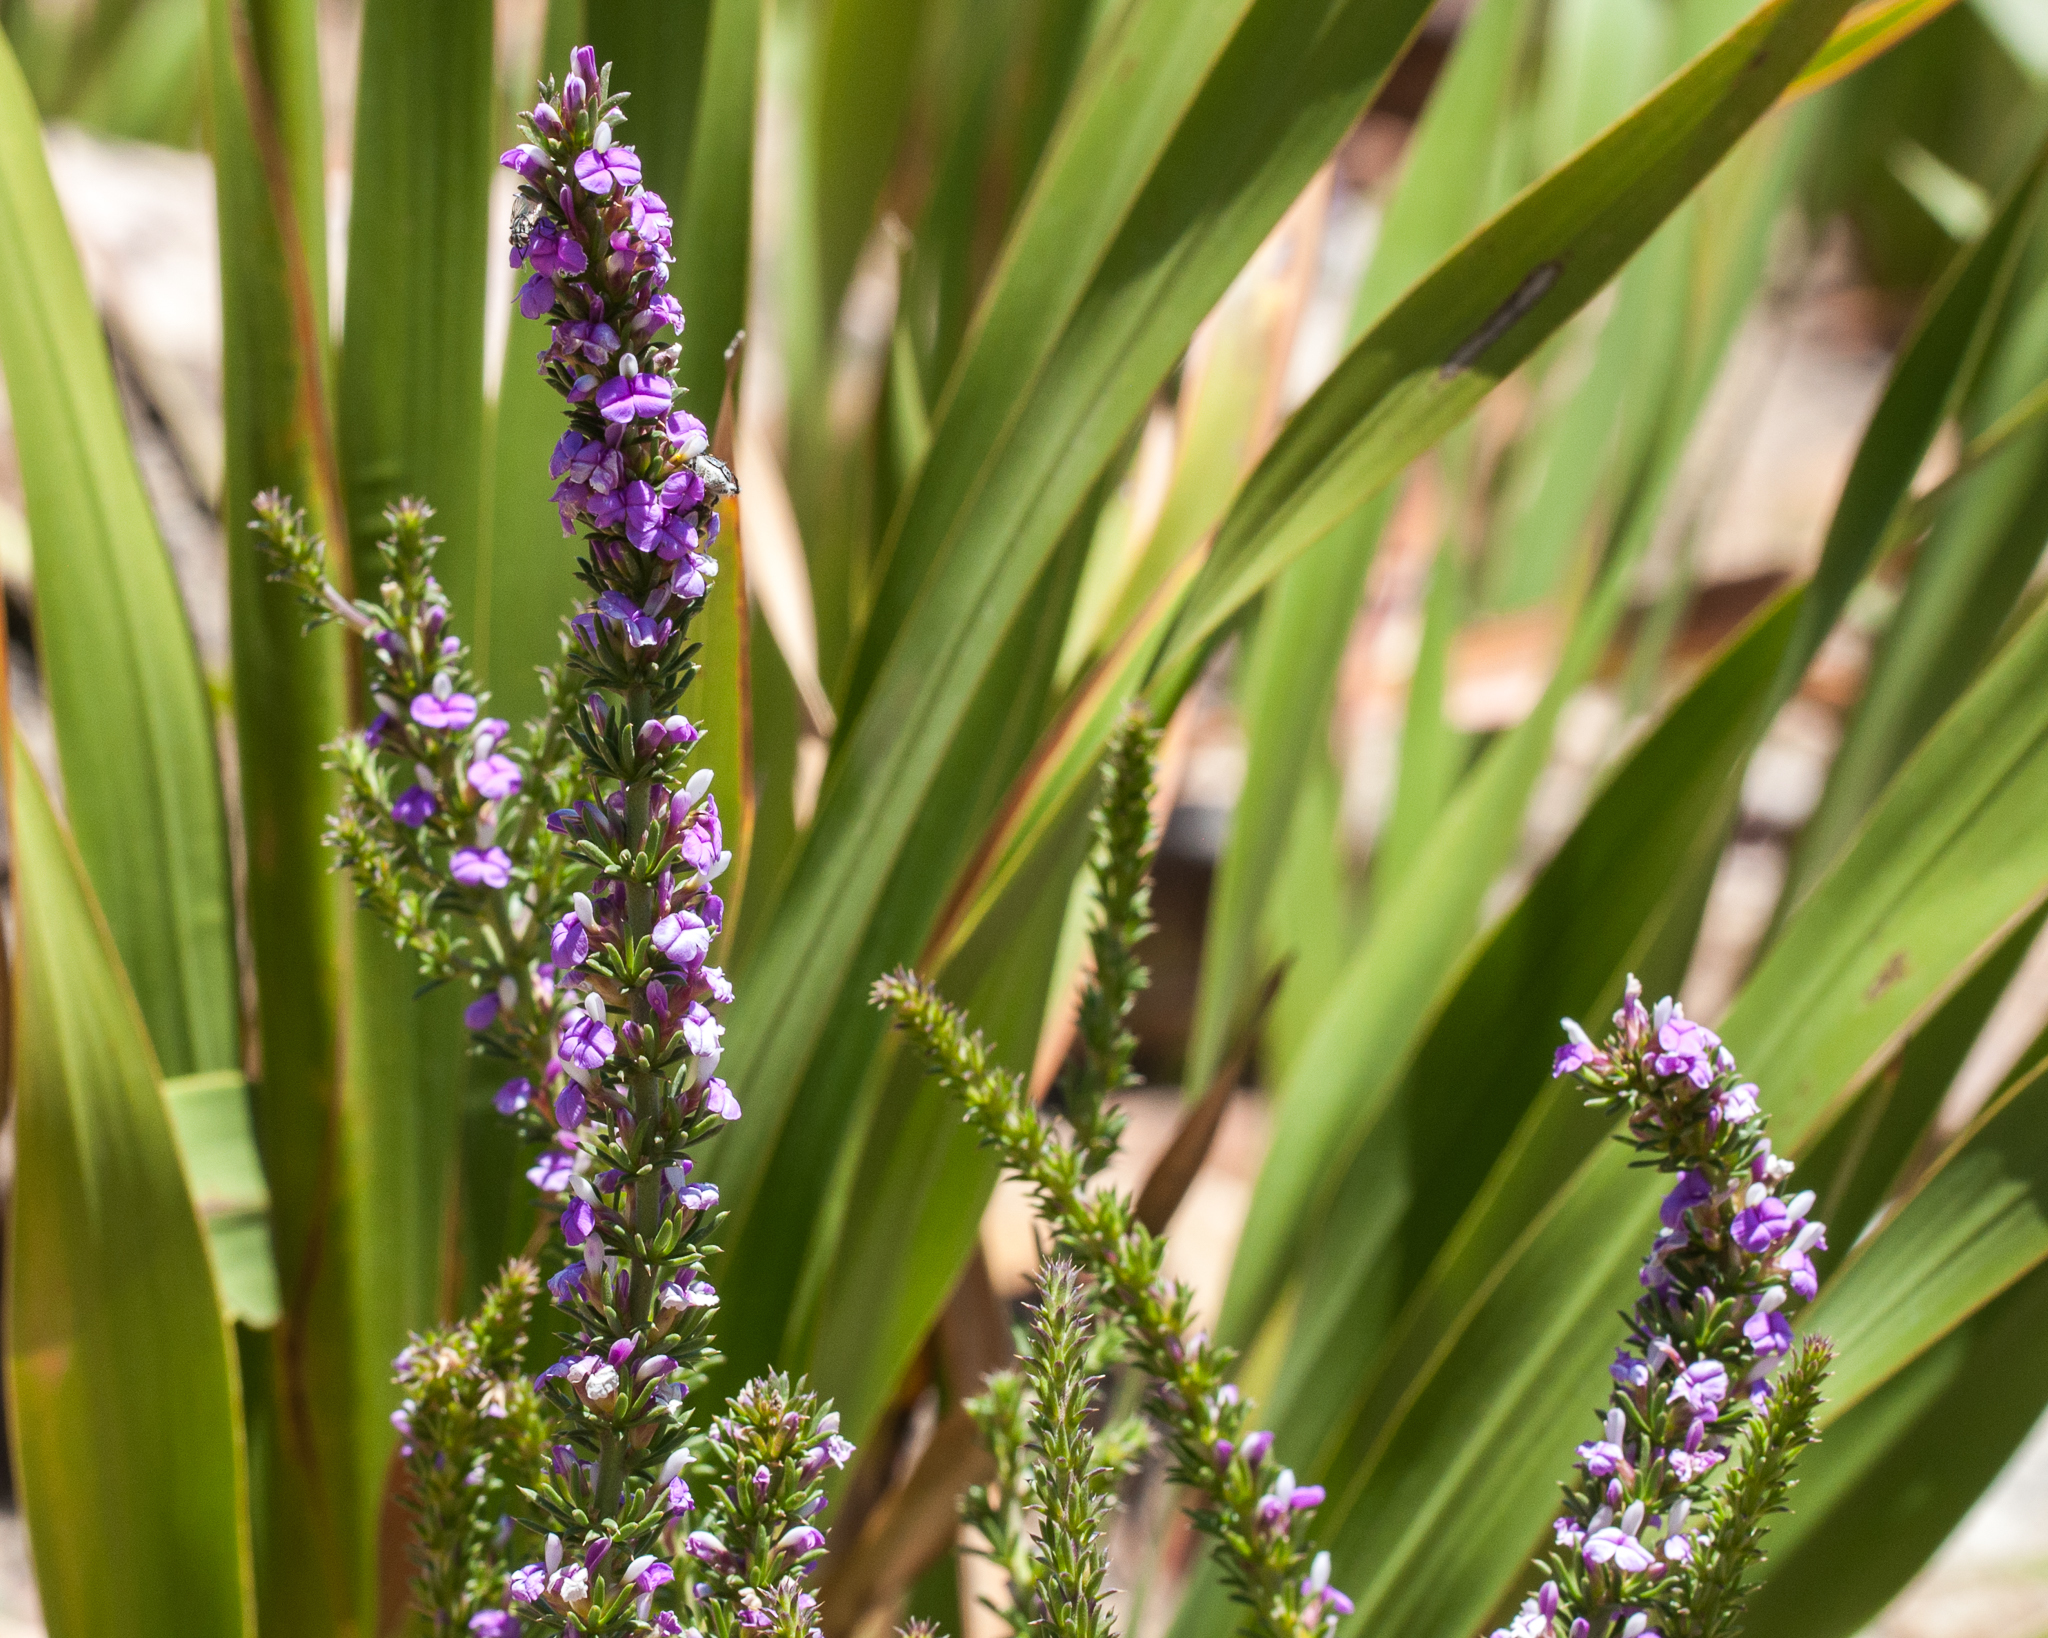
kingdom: Plantae
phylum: Tracheophyta
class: Magnoliopsida
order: Fabales
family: Polygalaceae
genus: Muraltia
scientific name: Muraltia heisteria
